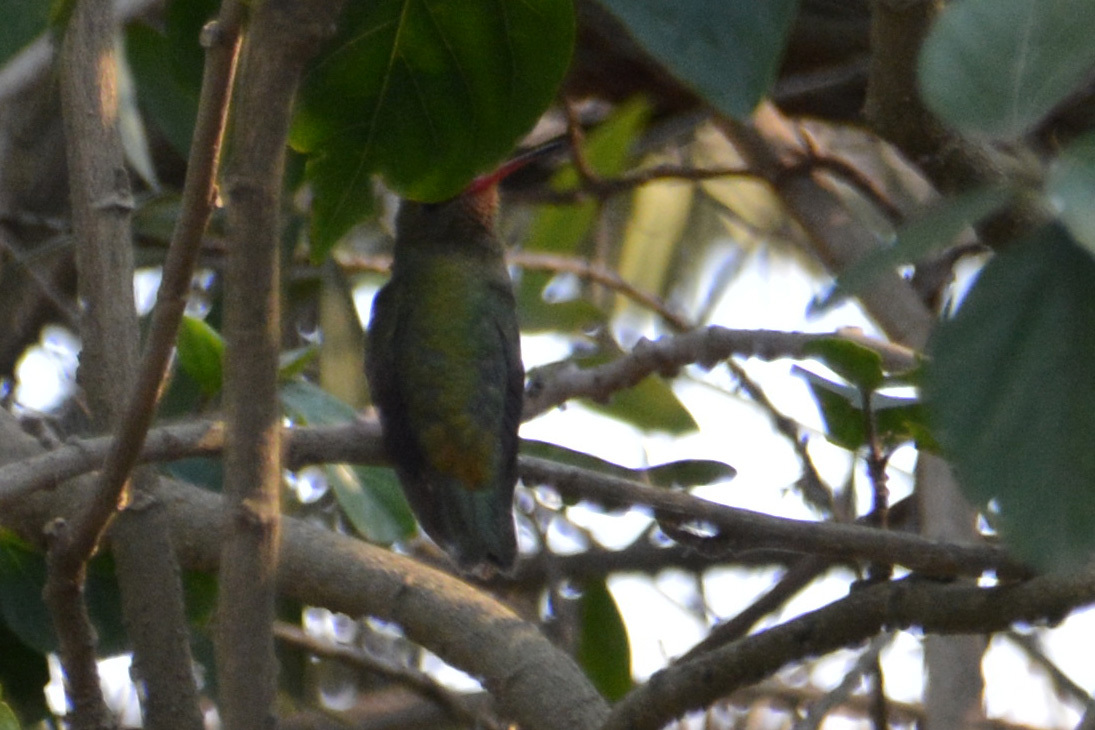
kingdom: Animalia
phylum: Chordata
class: Aves
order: Apodiformes
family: Trochilidae
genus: Hylocharis
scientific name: Hylocharis chrysura
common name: Gilded sapphire
